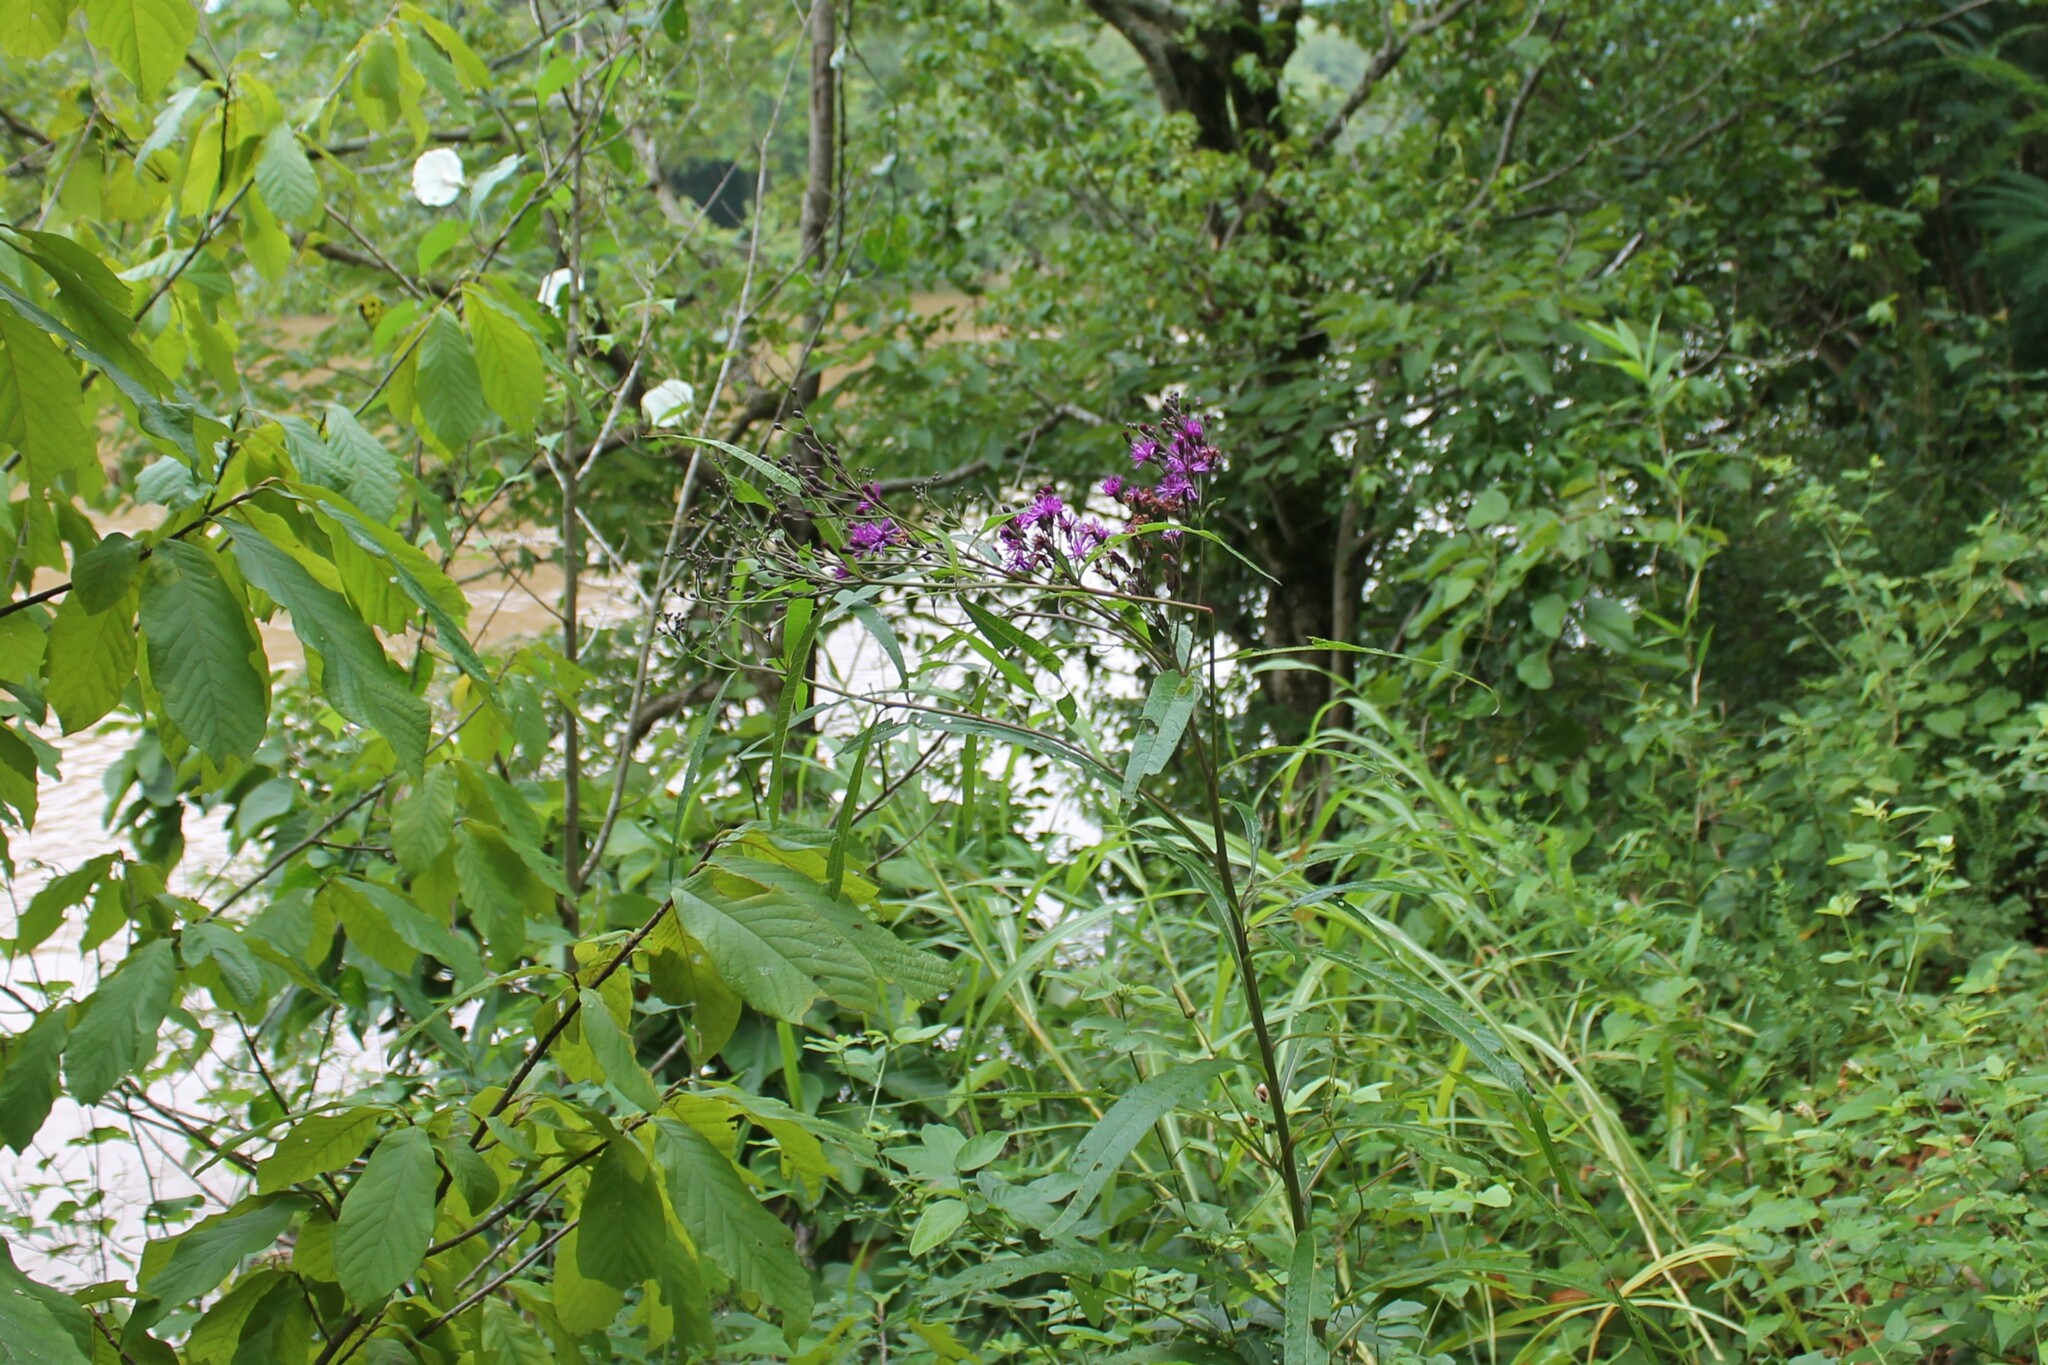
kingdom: Plantae
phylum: Tracheophyta
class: Magnoliopsida
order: Asterales
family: Asteraceae
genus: Vernonia
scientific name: Vernonia gigantea
